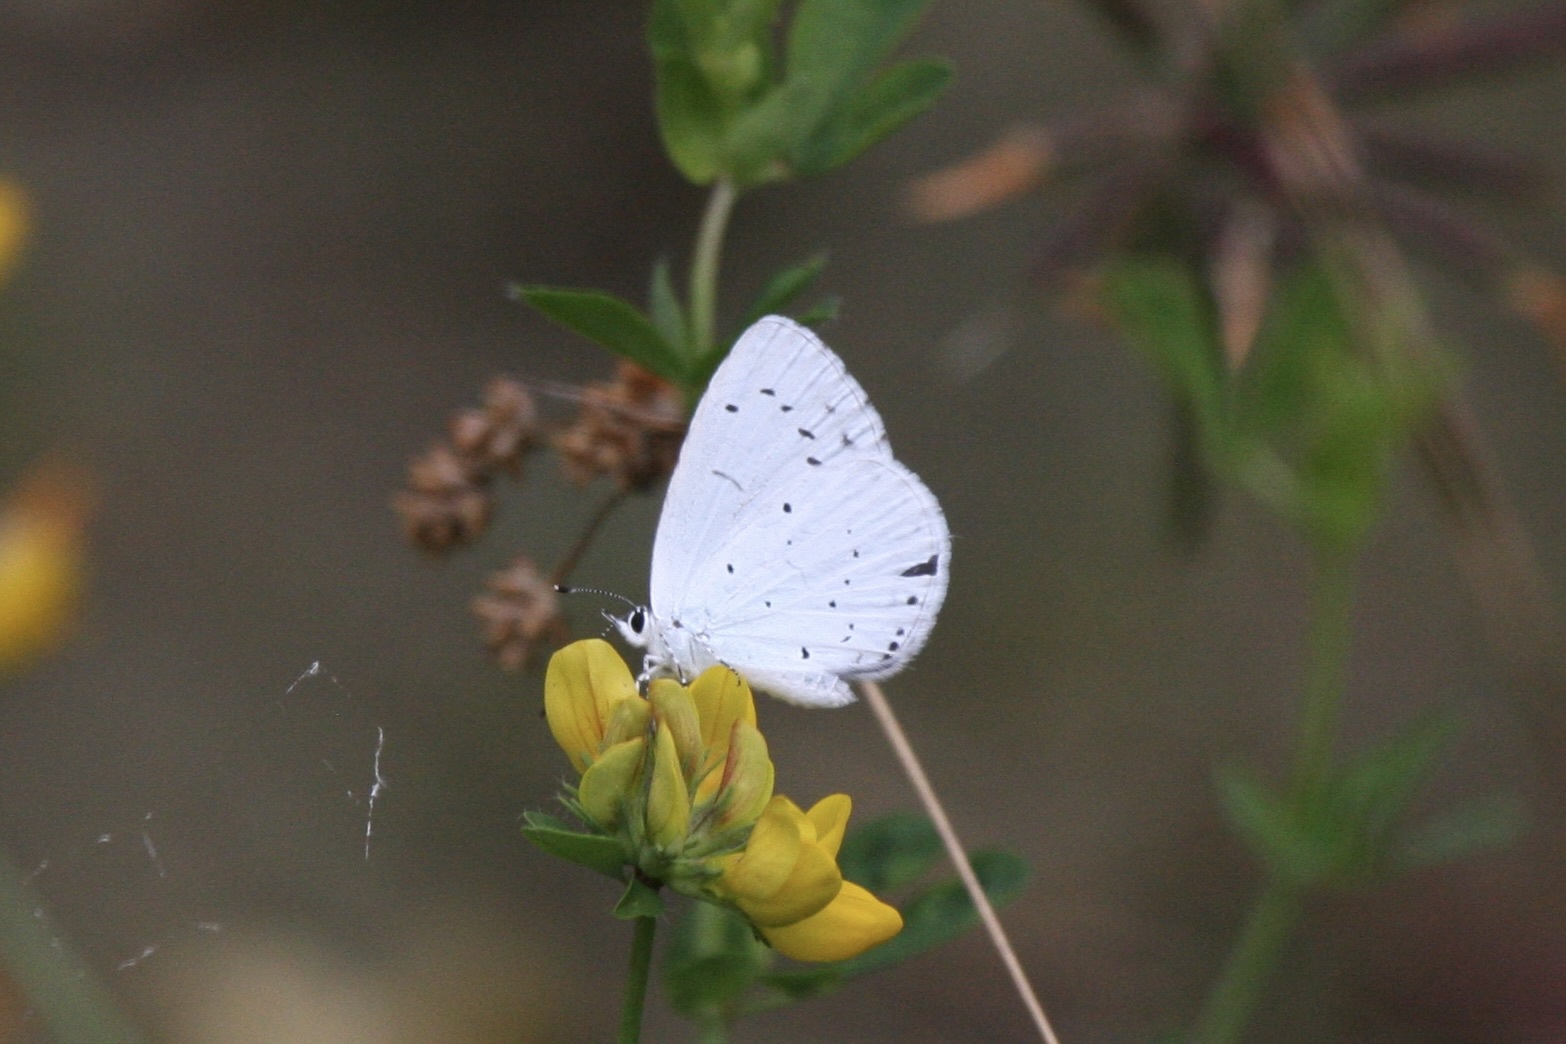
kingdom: Animalia
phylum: Arthropoda
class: Insecta
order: Lepidoptera
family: Lycaenidae
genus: Celastrina
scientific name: Celastrina argiolus
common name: Holly blue
